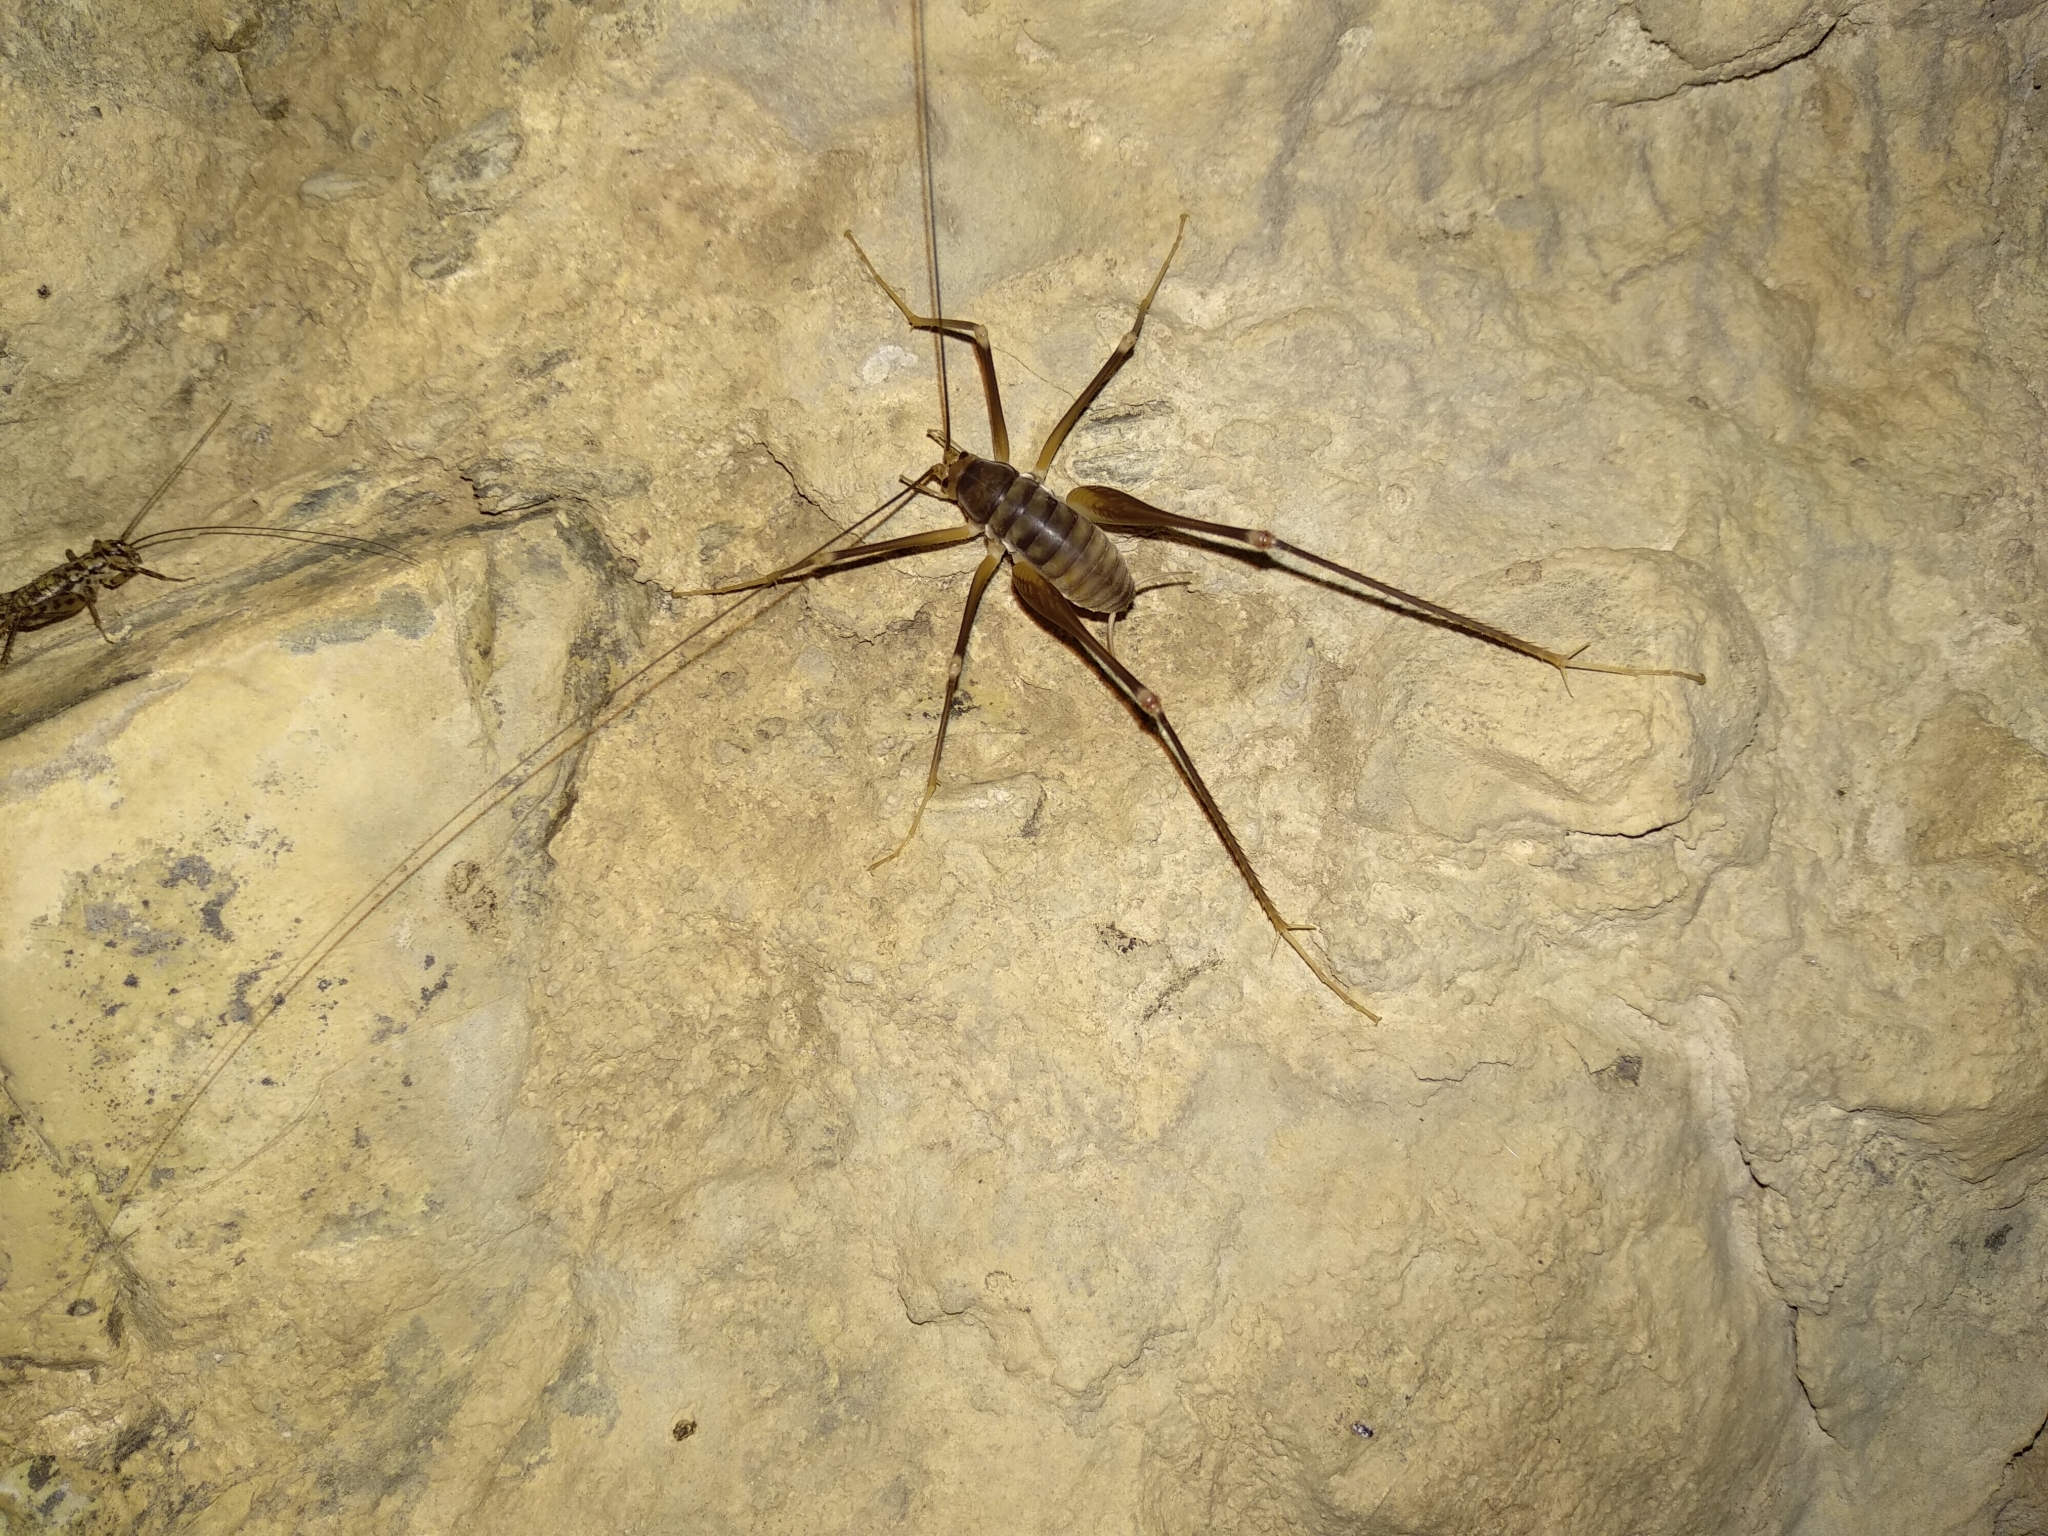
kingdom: Animalia
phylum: Arthropoda
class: Insecta
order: Orthoptera
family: Rhaphidophoridae
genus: Dolichopoda
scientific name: Dolichopoda schiavazzii
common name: Livorno cave-cricket
